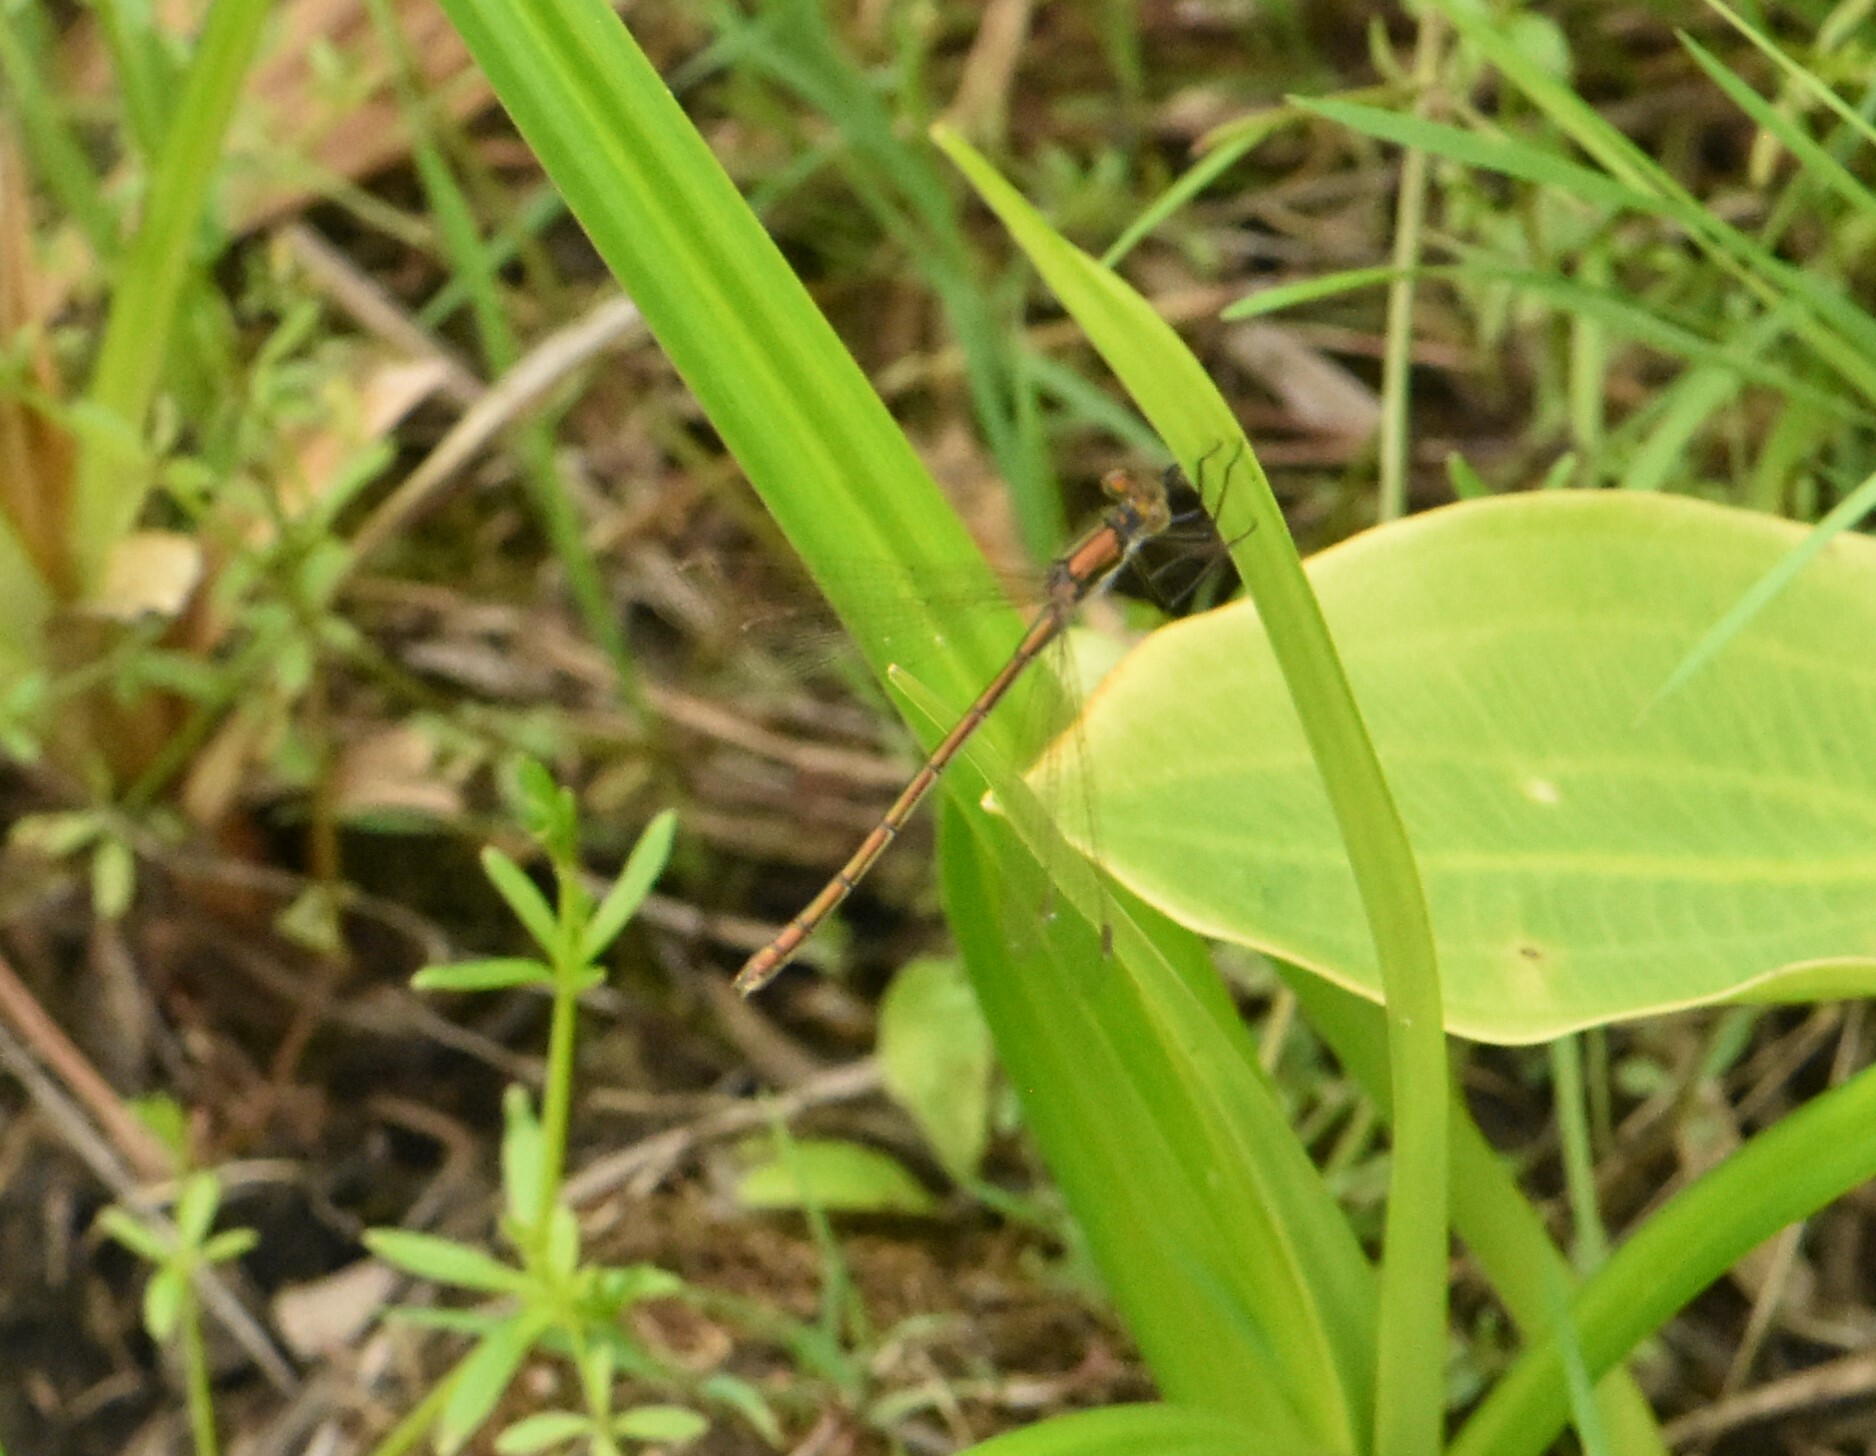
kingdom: Animalia
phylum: Arthropoda
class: Insecta
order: Odonata
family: Lestidae
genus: Lestes
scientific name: Lestes sponsa
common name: Common spreadwing
